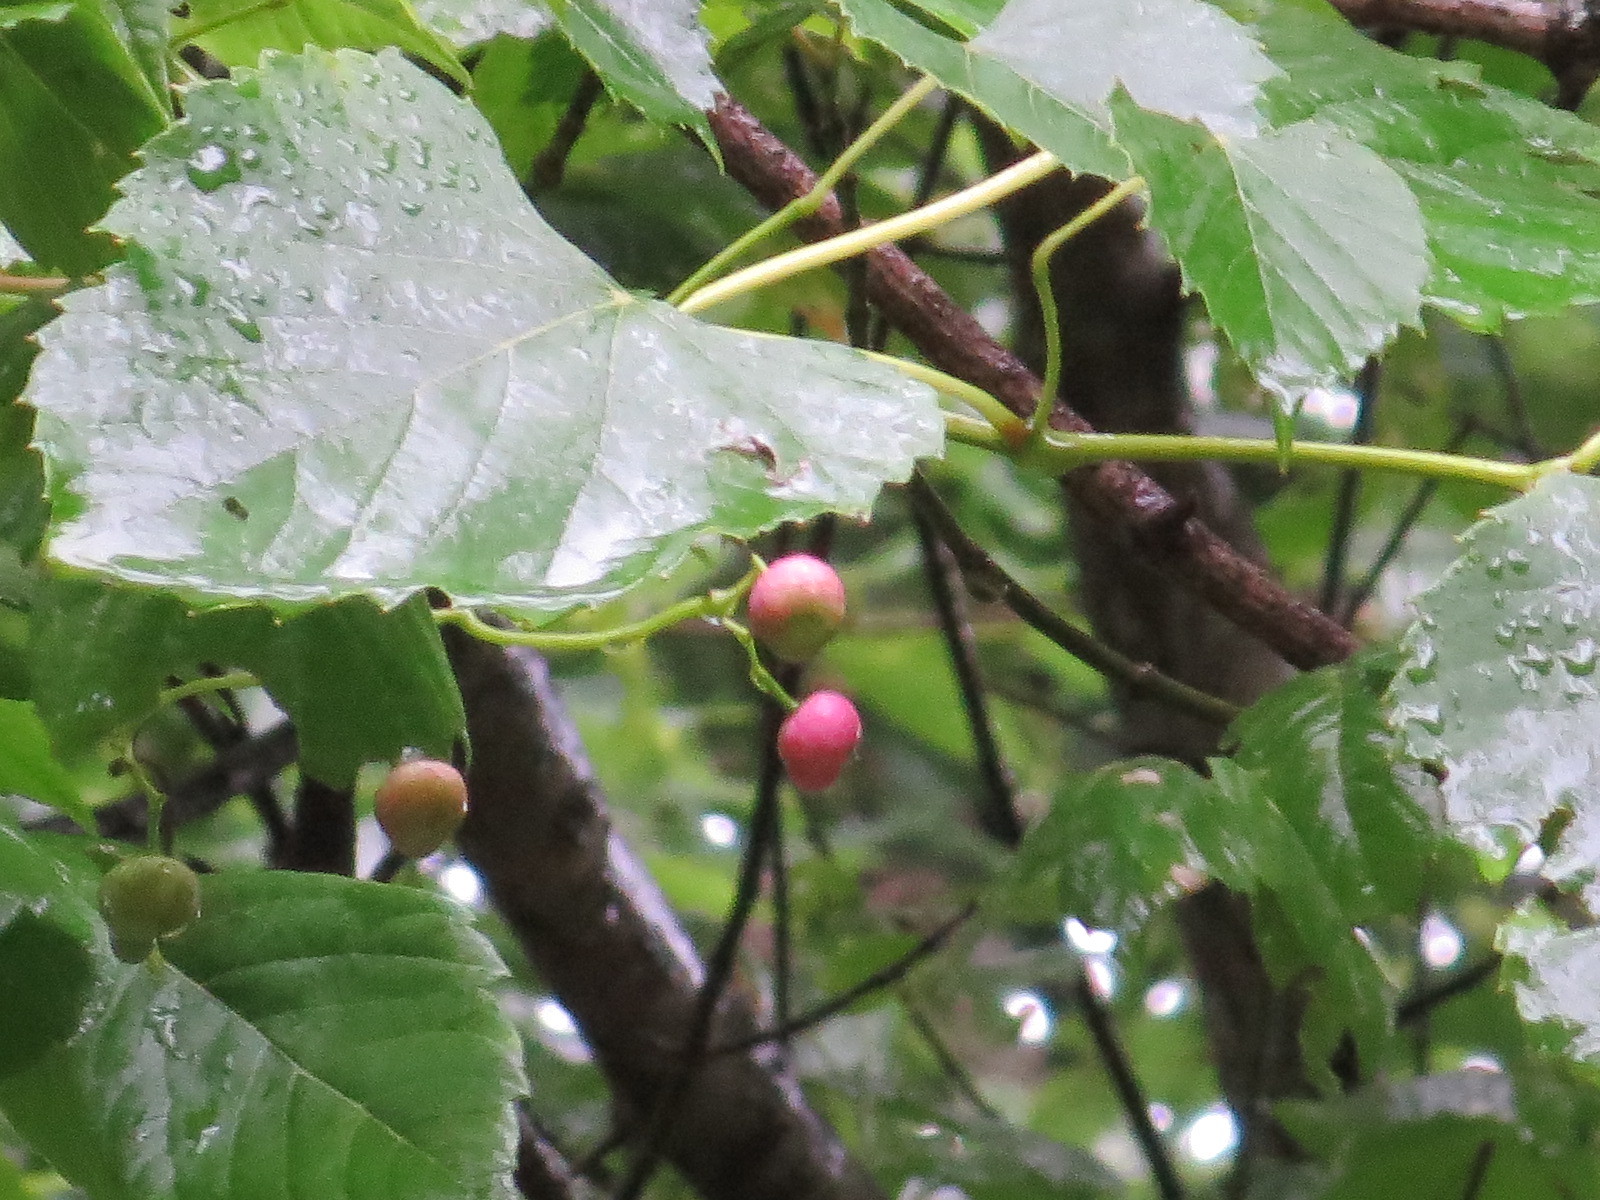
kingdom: Plantae
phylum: Tracheophyta
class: Magnoliopsida
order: Vitales
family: Vitaceae
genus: Ampelopsis
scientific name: Ampelopsis cordata
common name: Heart-leaf ampelopsis
